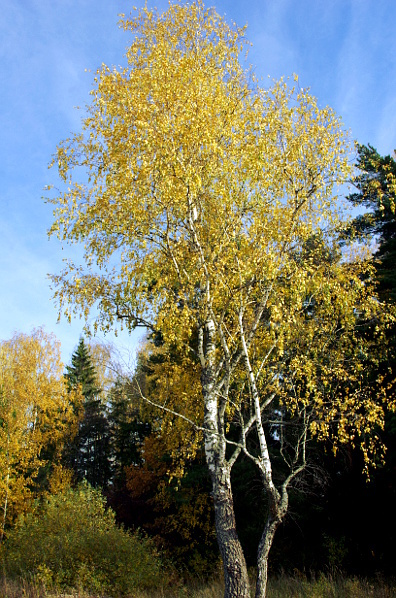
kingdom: Plantae
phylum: Tracheophyta
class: Magnoliopsida
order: Fagales
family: Betulaceae
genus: Betula
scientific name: Betula pendula
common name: Silver birch
